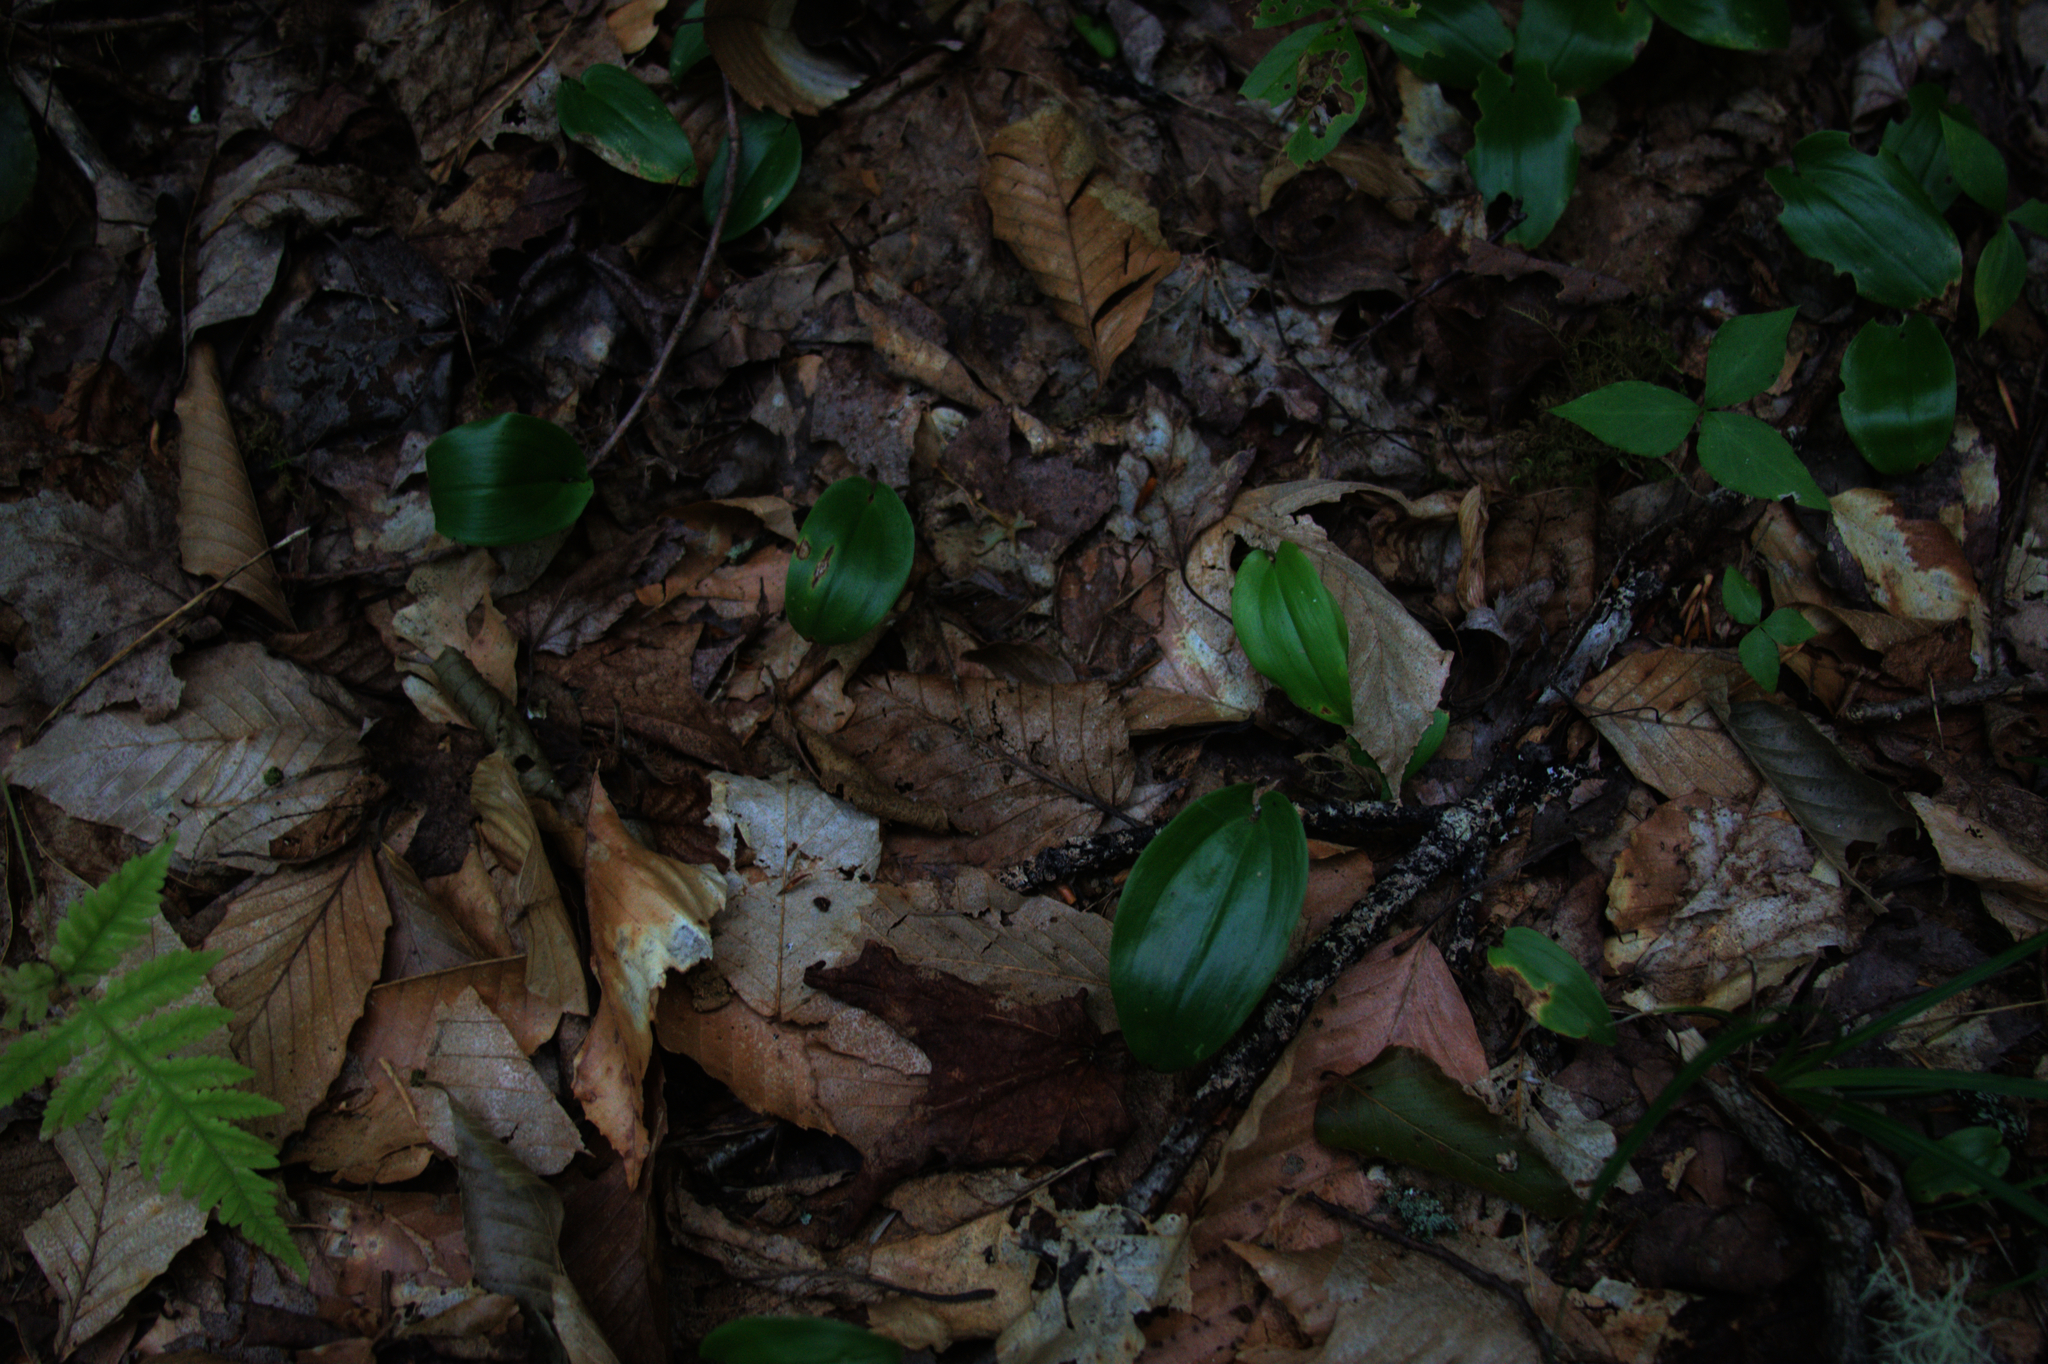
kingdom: Plantae
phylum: Tracheophyta
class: Liliopsida
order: Asparagales
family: Asparagaceae
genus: Maianthemum
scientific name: Maianthemum canadense
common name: False lily-of-the-valley
